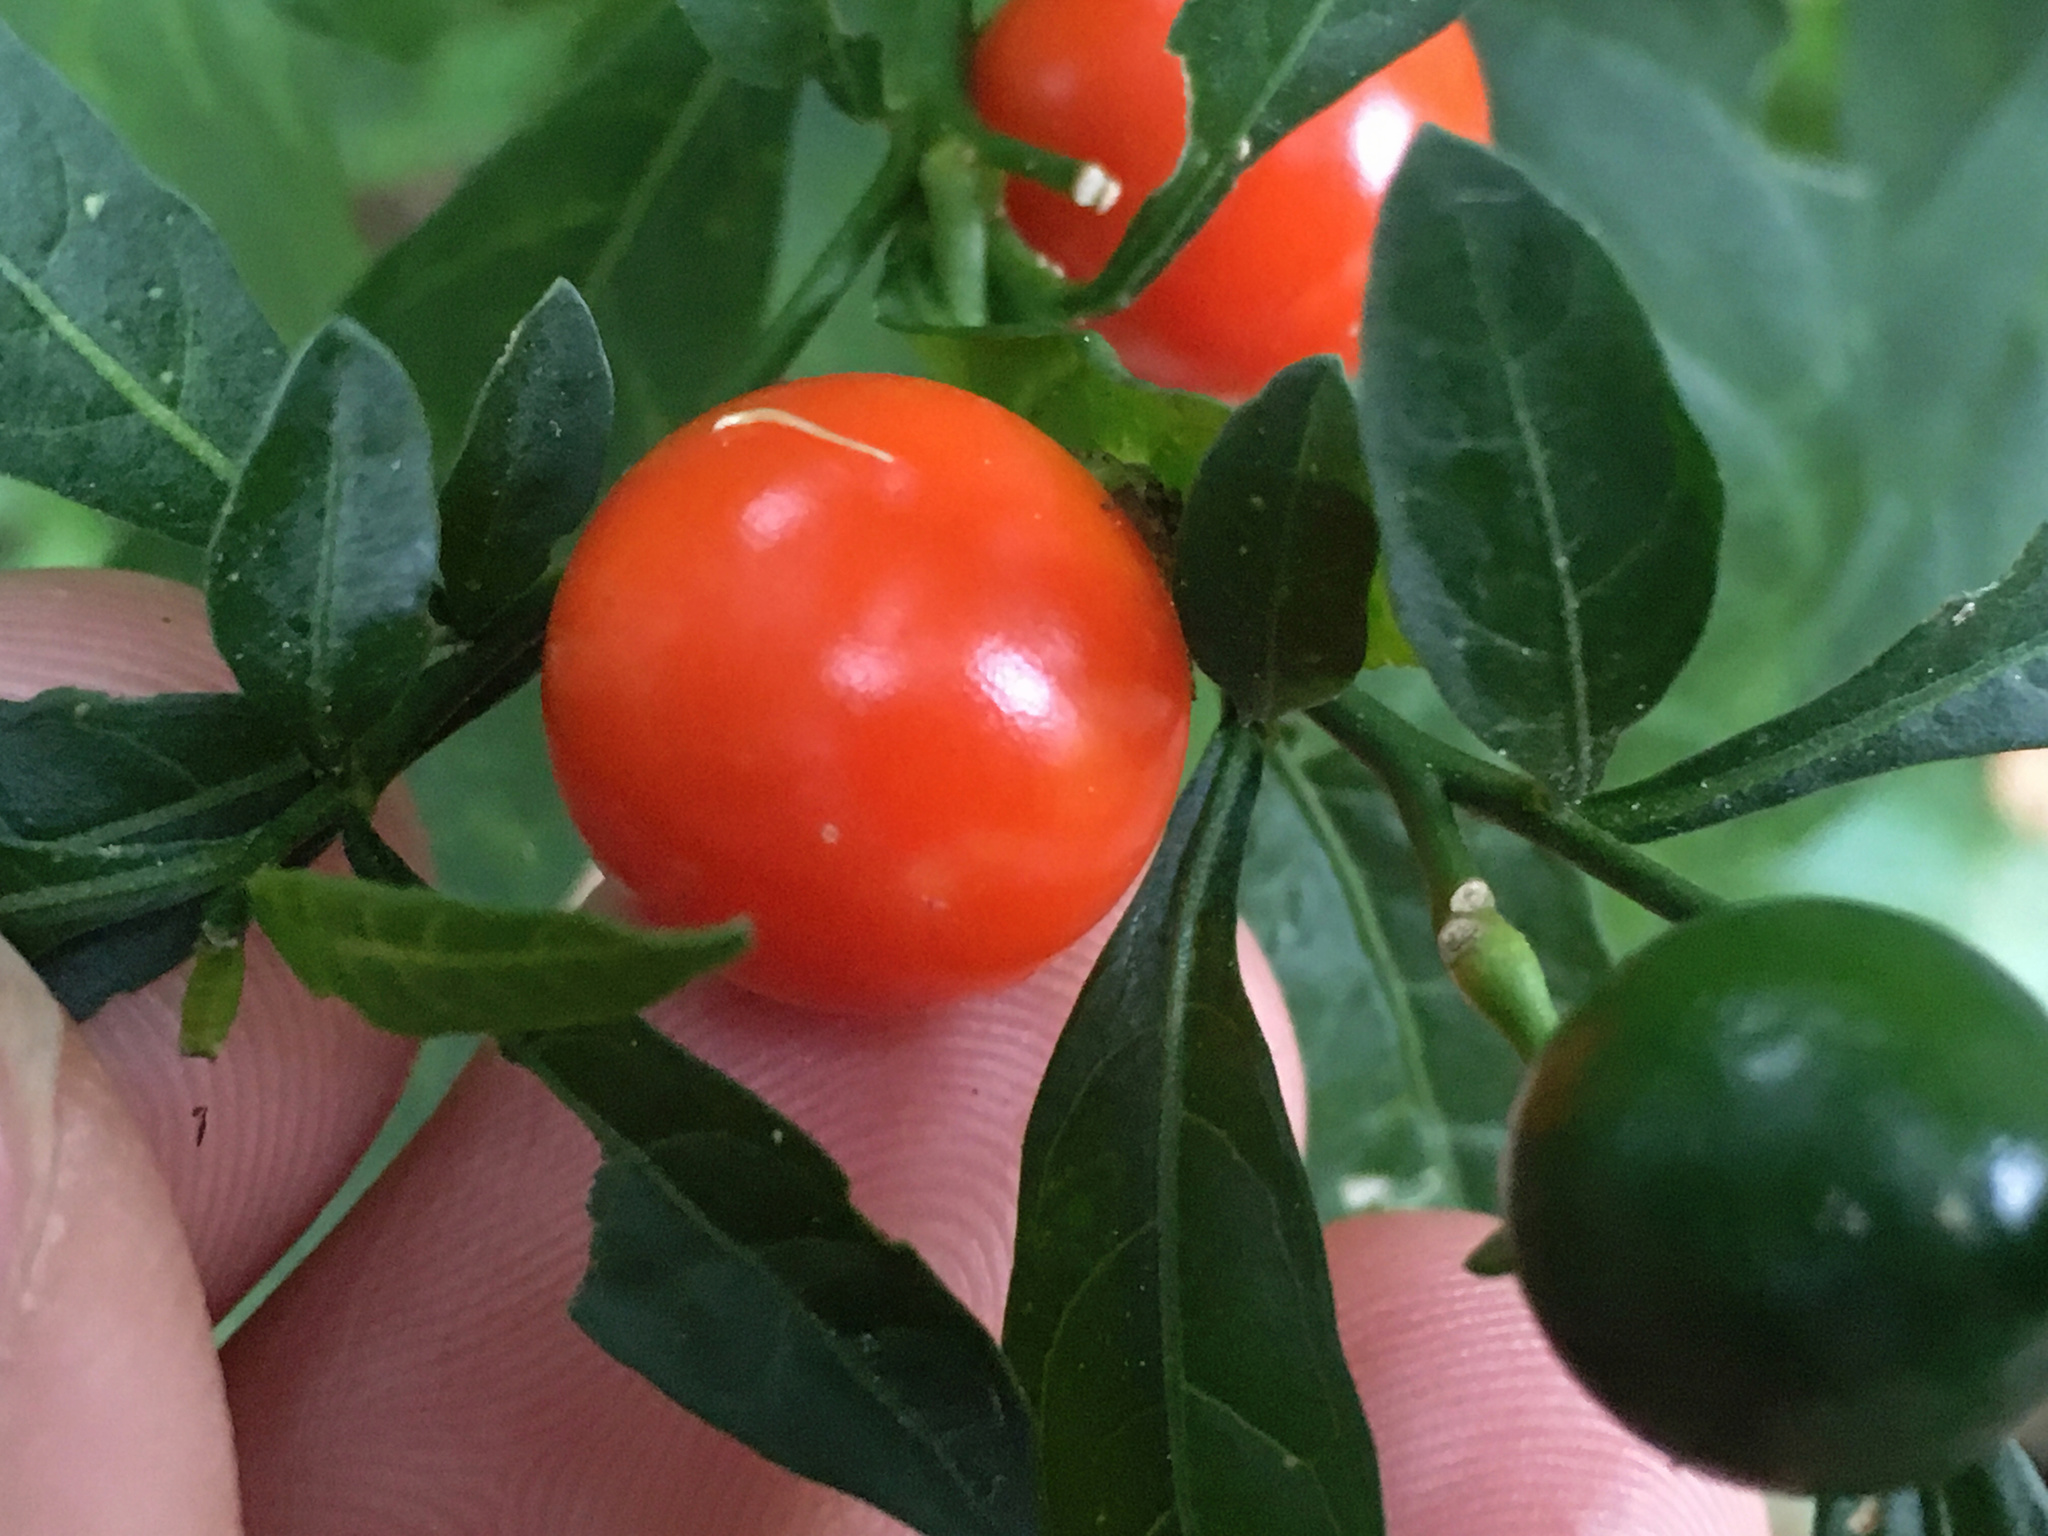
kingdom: Plantae
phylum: Tracheophyta
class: Magnoliopsida
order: Solanales
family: Solanaceae
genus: Solanum
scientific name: Solanum pseudocapsicum
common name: Jerusalem cherry
